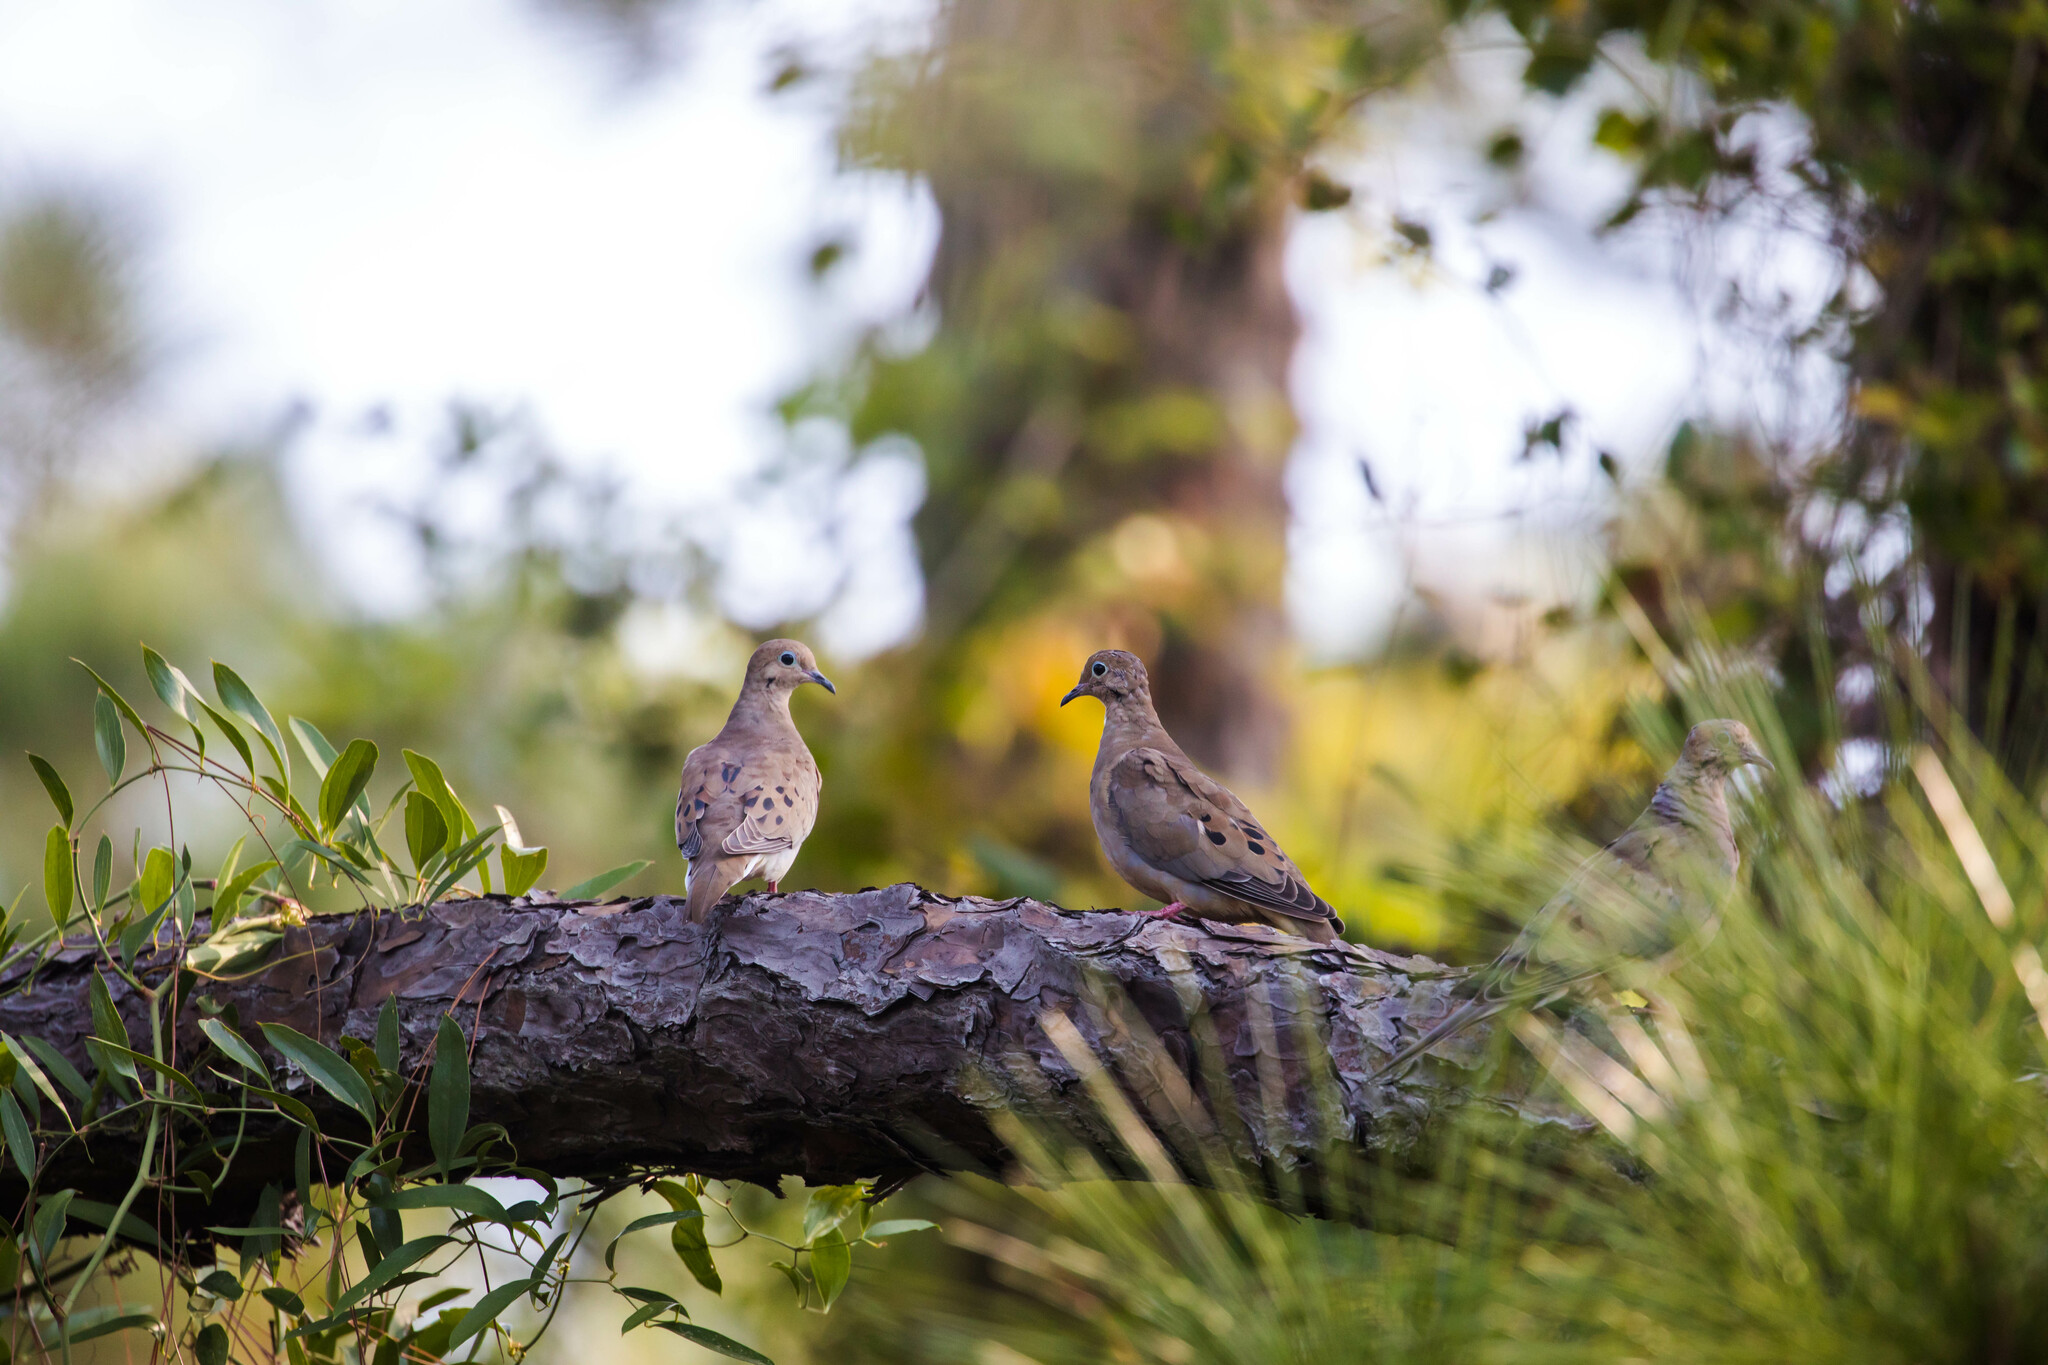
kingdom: Animalia
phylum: Chordata
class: Aves
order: Columbiformes
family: Columbidae
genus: Zenaida
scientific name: Zenaida macroura
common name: Mourning dove
